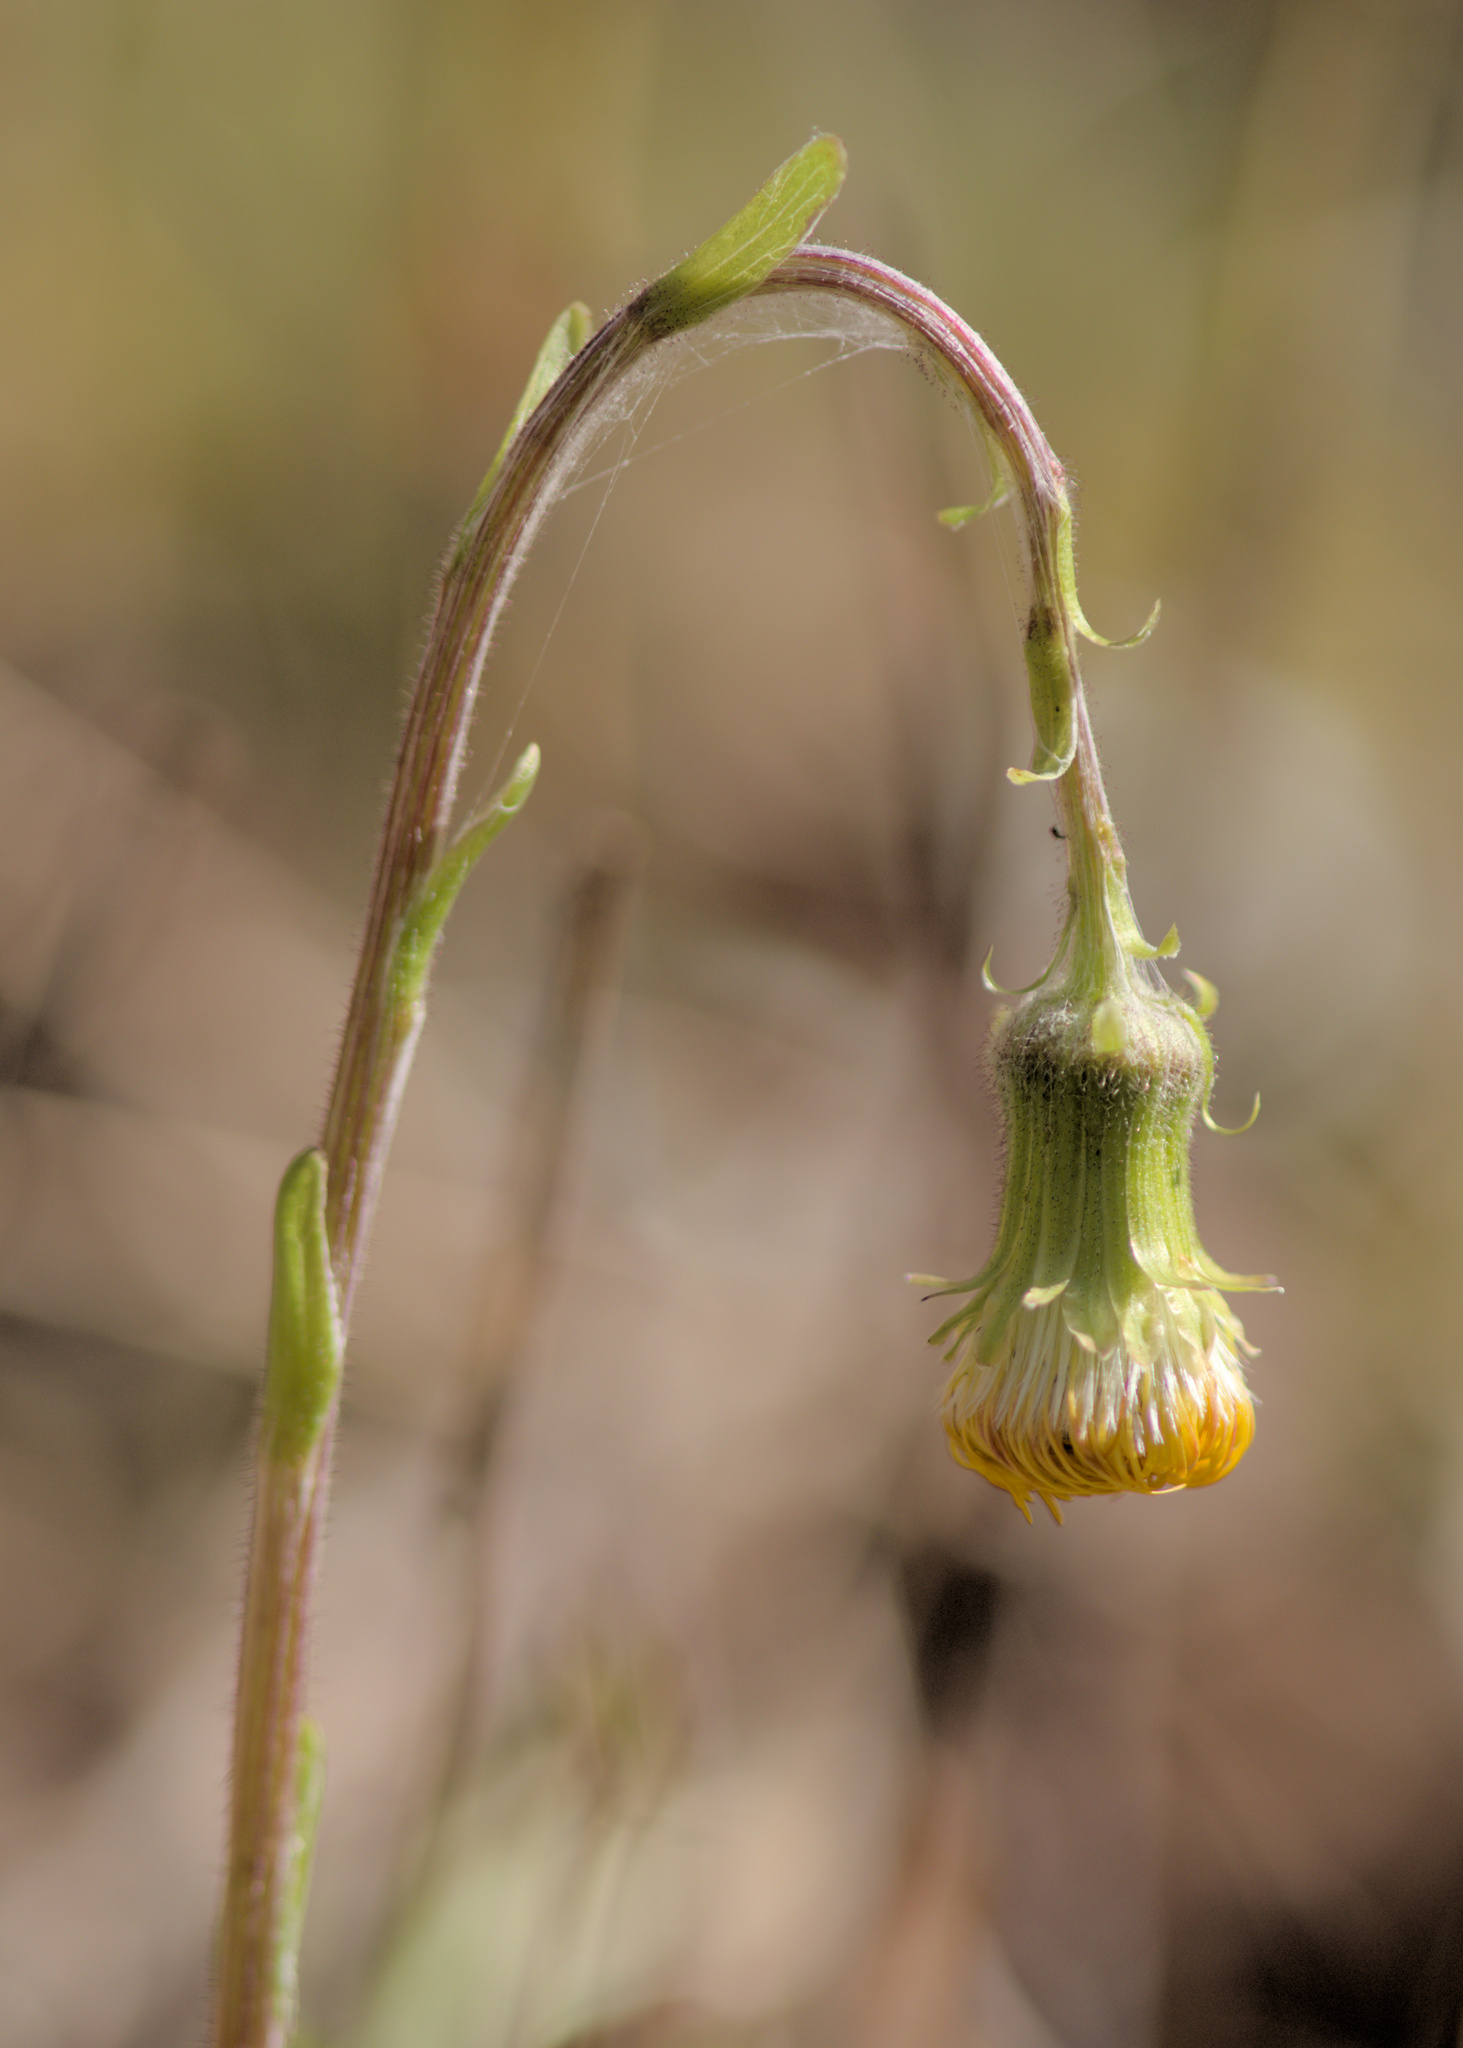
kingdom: Plantae
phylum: Tracheophyta
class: Magnoliopsida
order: Asterales
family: Asteraceae
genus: Tussilago
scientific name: Tussilago farfara
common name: Coltsfoot
